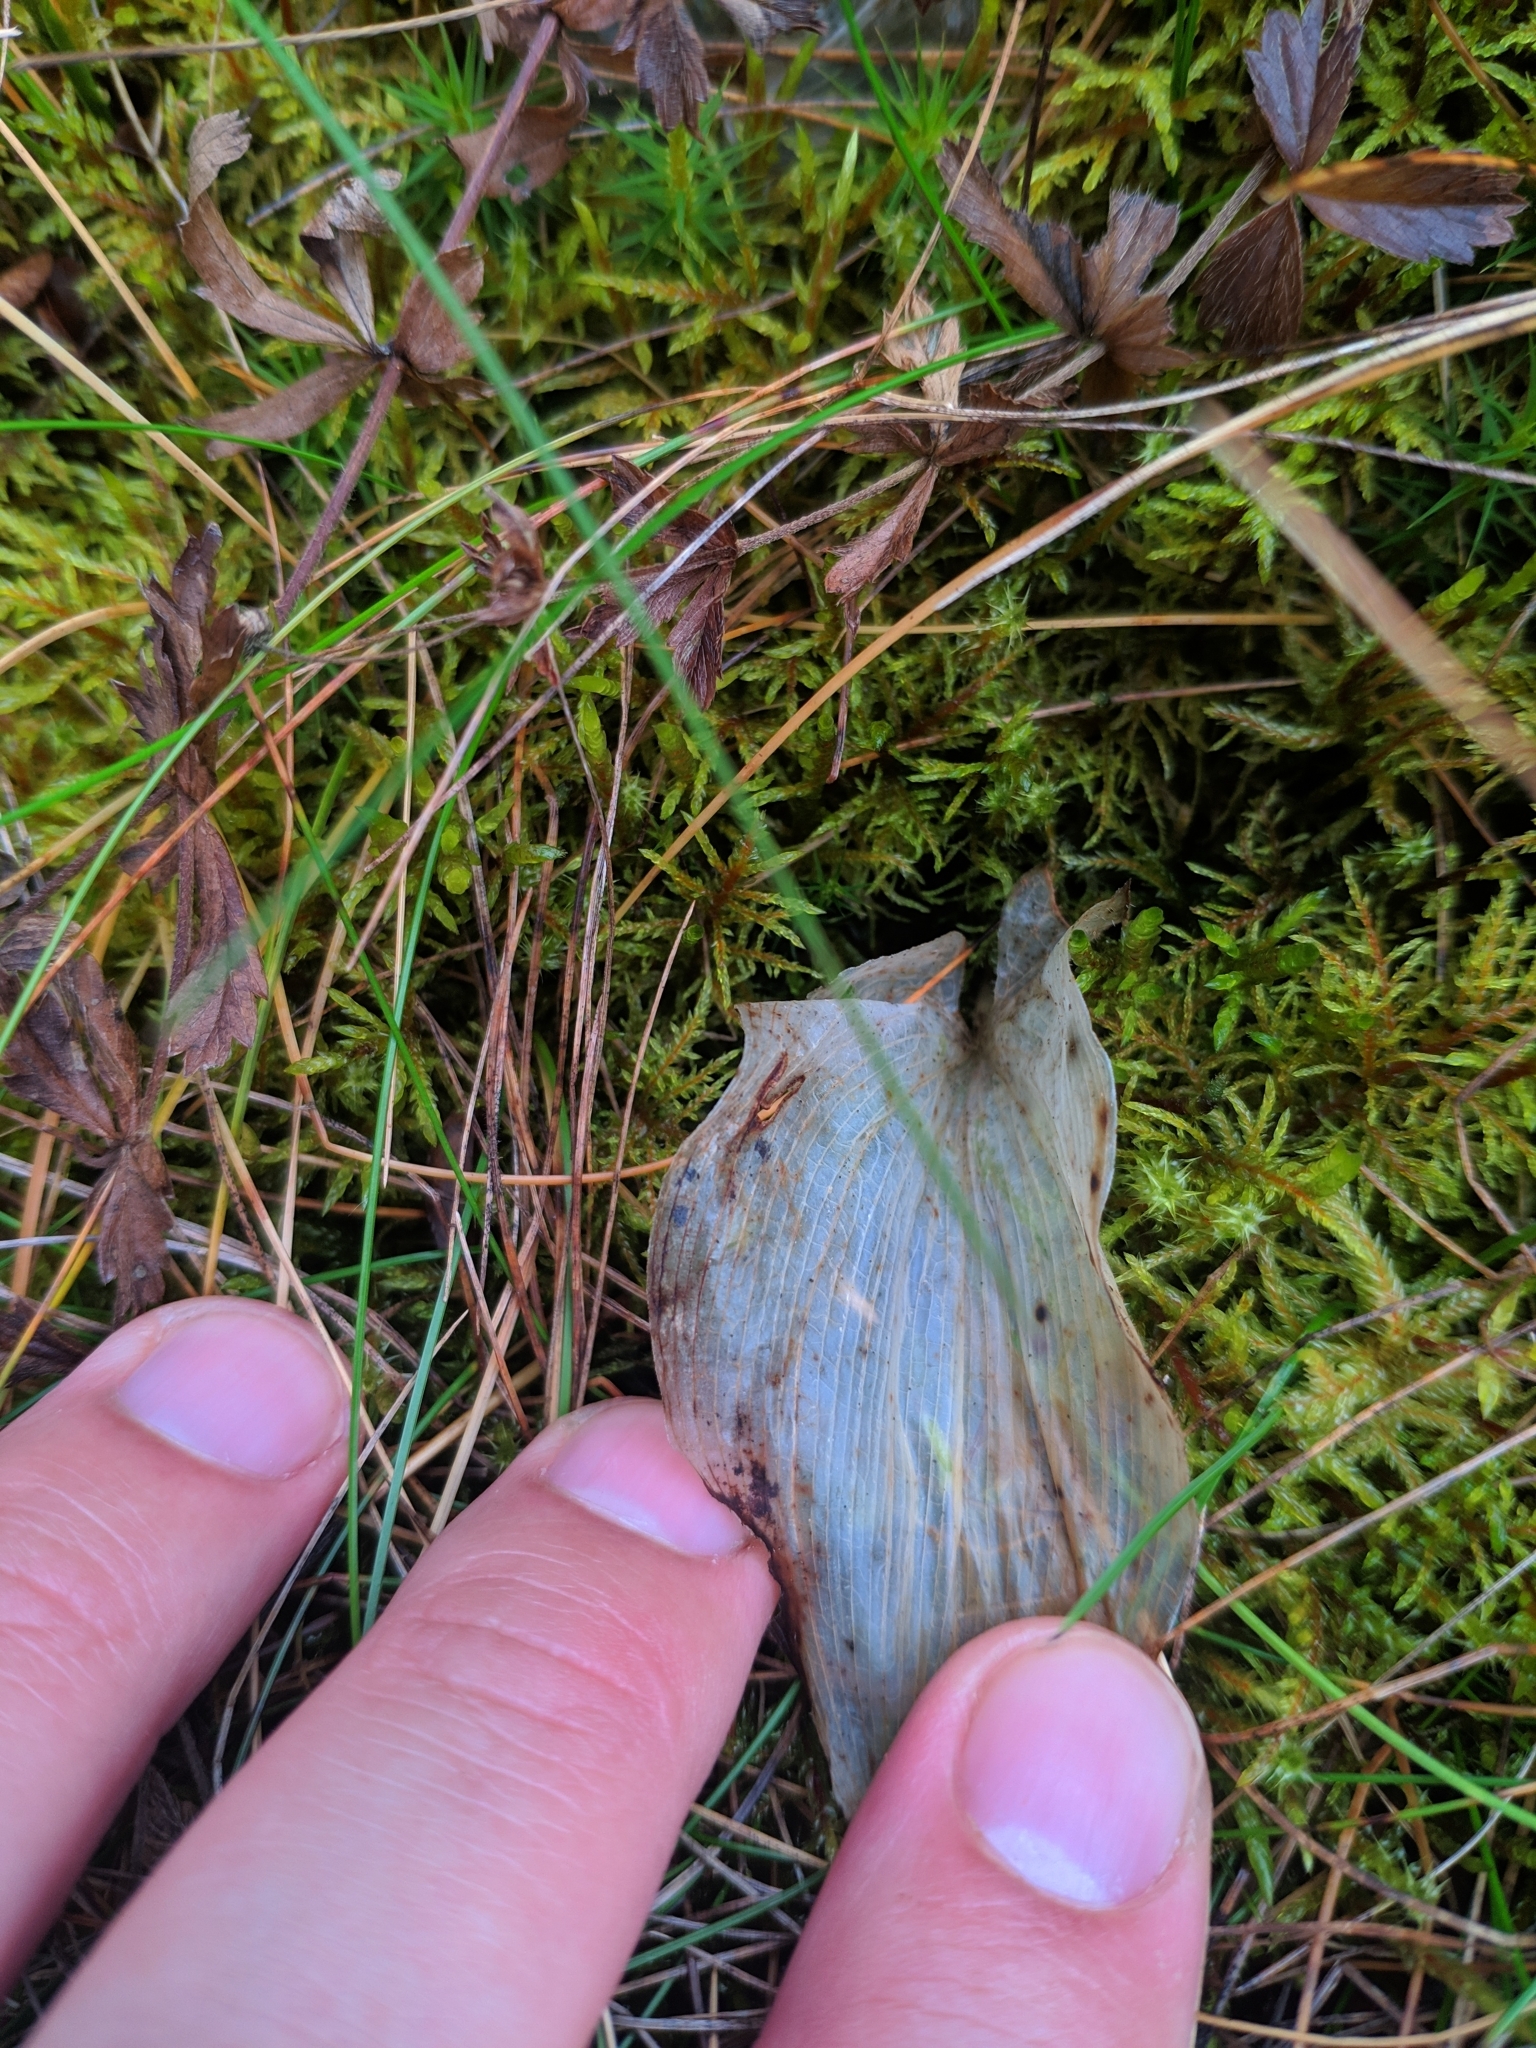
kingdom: Plantae
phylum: Tracheophyta
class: Liliopsida
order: Asparagales
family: Asparagaceae
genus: Maianthemum
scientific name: Maianthemum bifolium
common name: May lily
